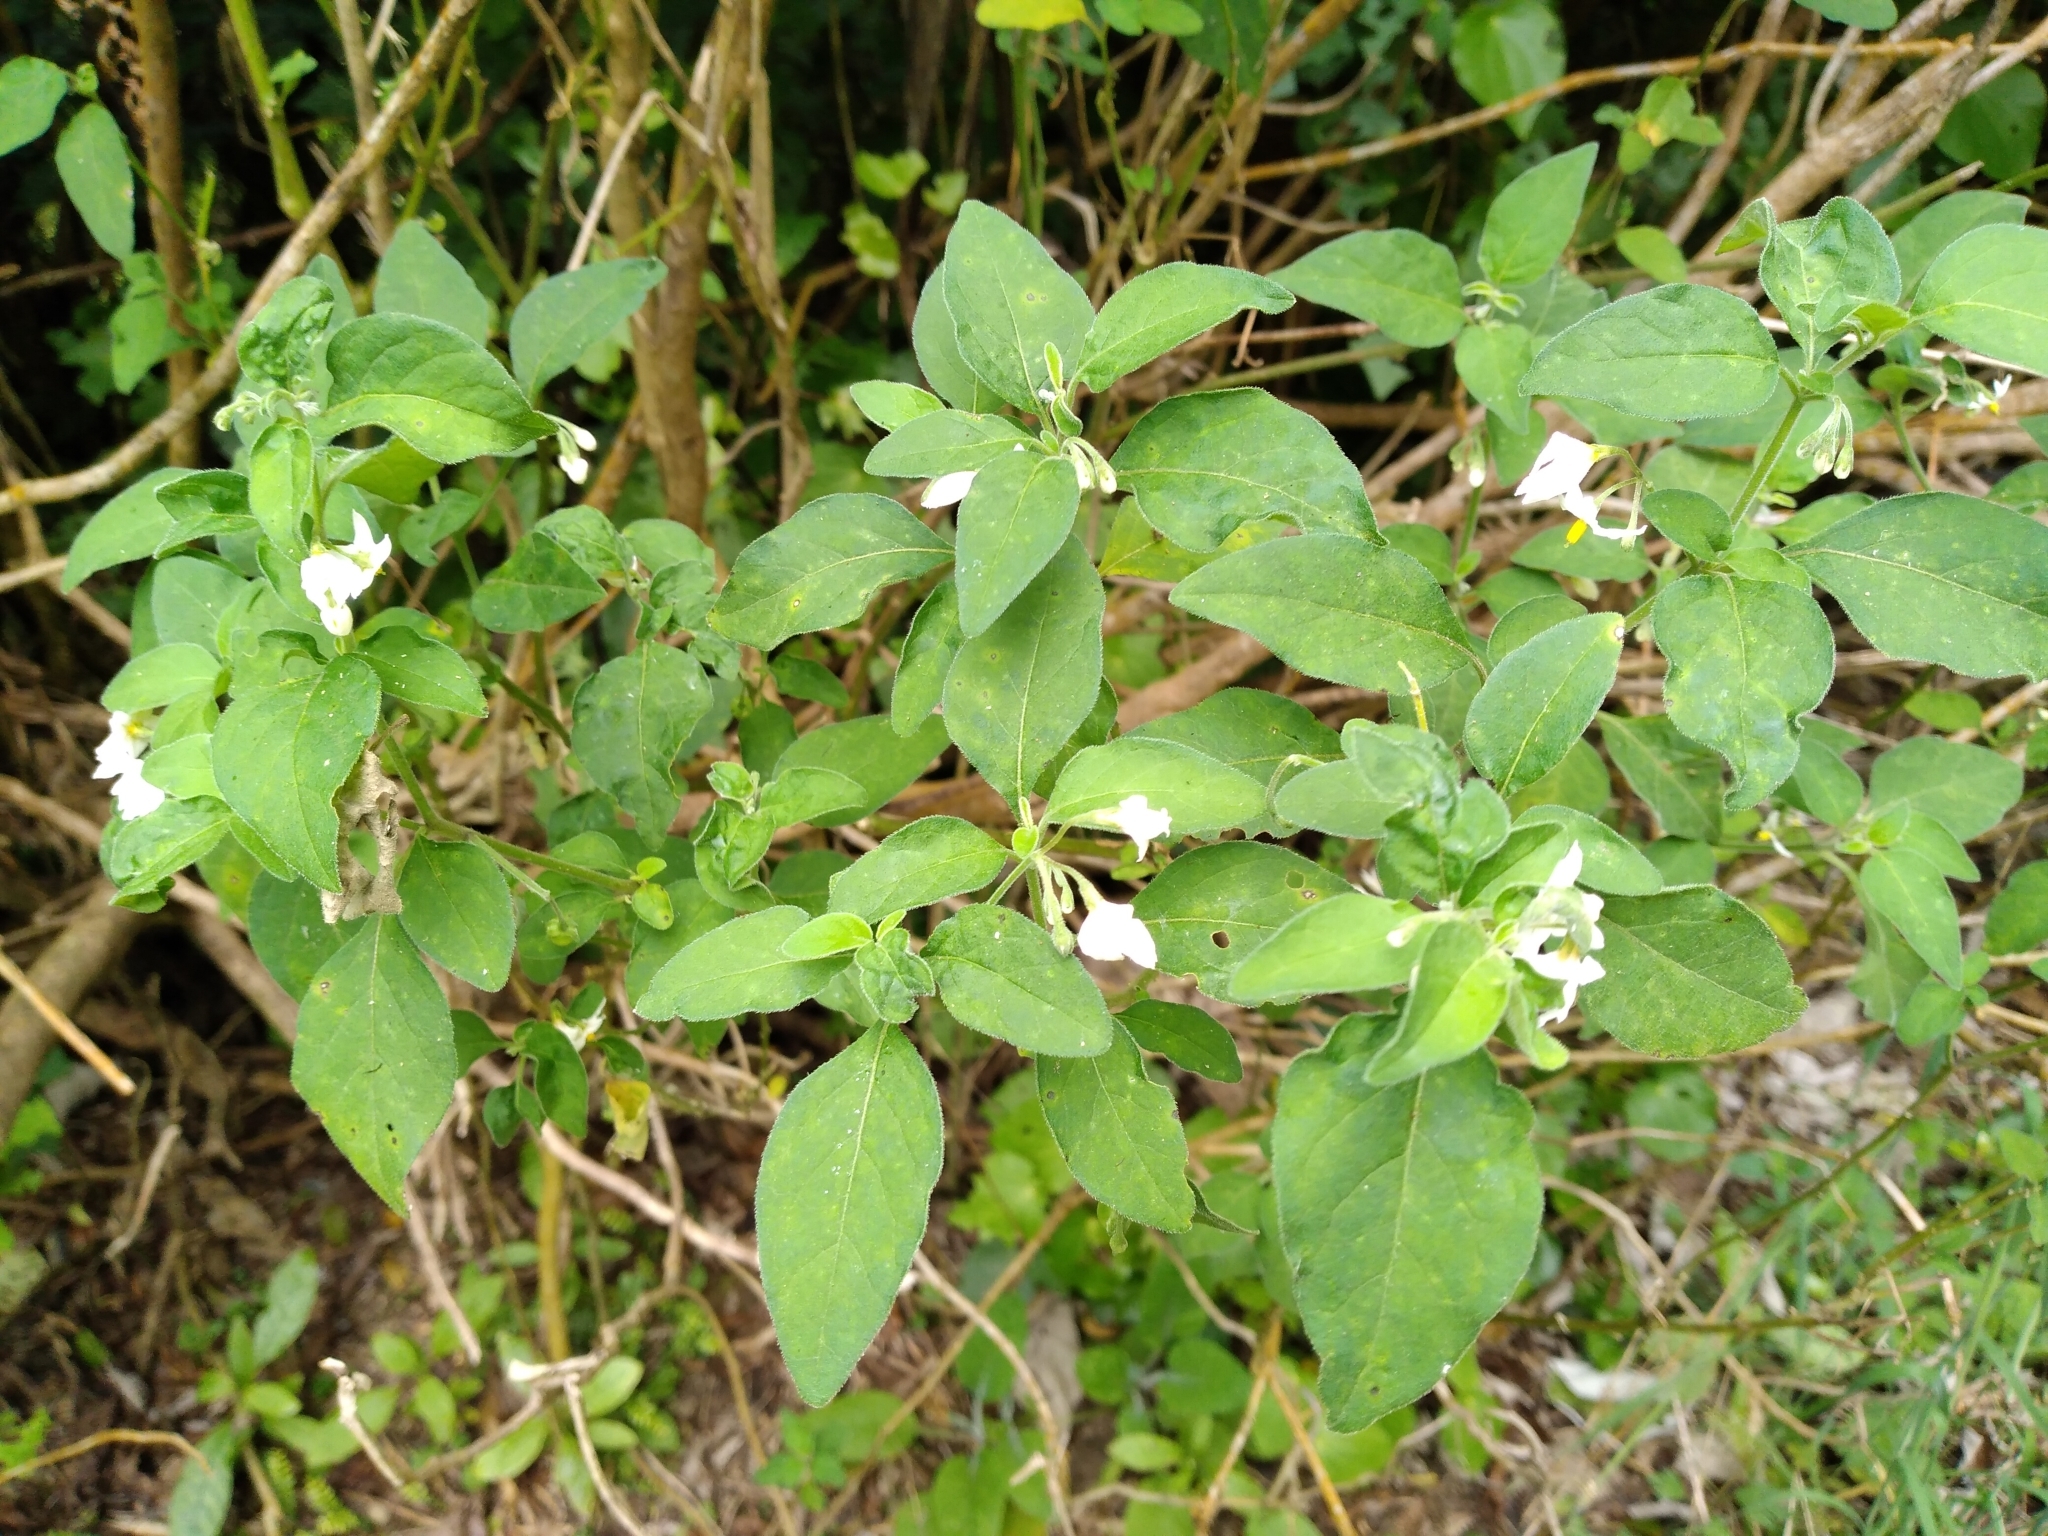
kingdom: Plantae
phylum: Tracheophyta
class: Magnoliopsida
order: Solanales
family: Solanaceae
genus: Solanum
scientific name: Solanum chenopodioides
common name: Tall nightshade
